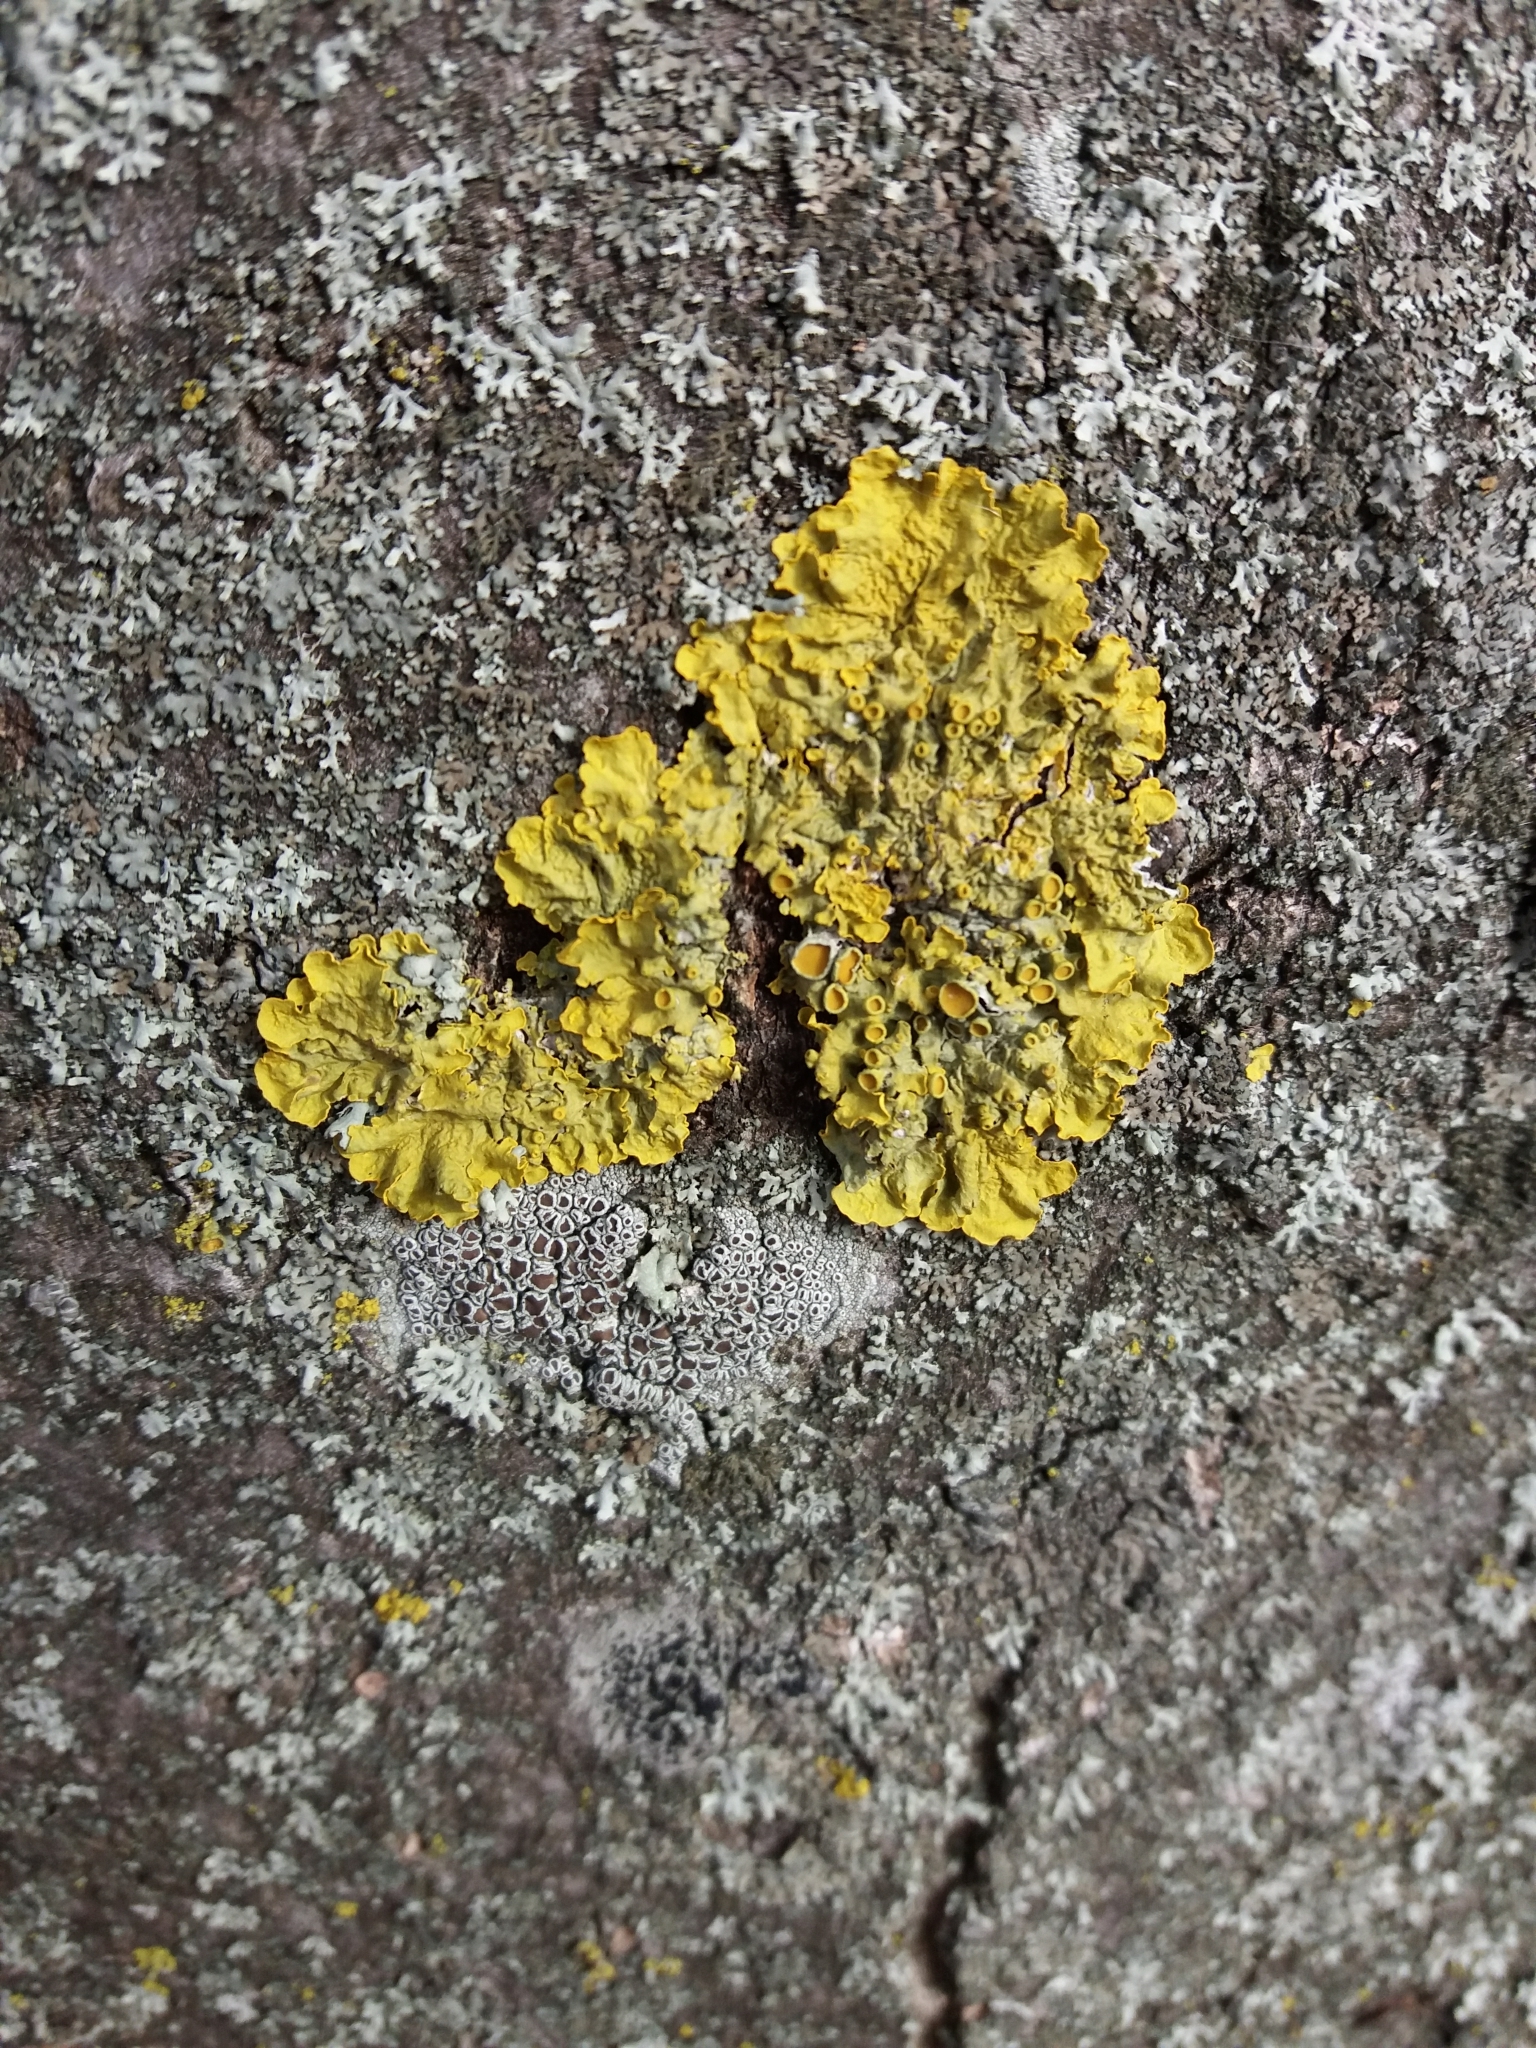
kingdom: Fungi
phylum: Ascomycota
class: Lecanoromycetes
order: Teloschistales
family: Teloschistaceae
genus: Xanthoria
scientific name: Xanthoria parietina
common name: Common orange lichen
